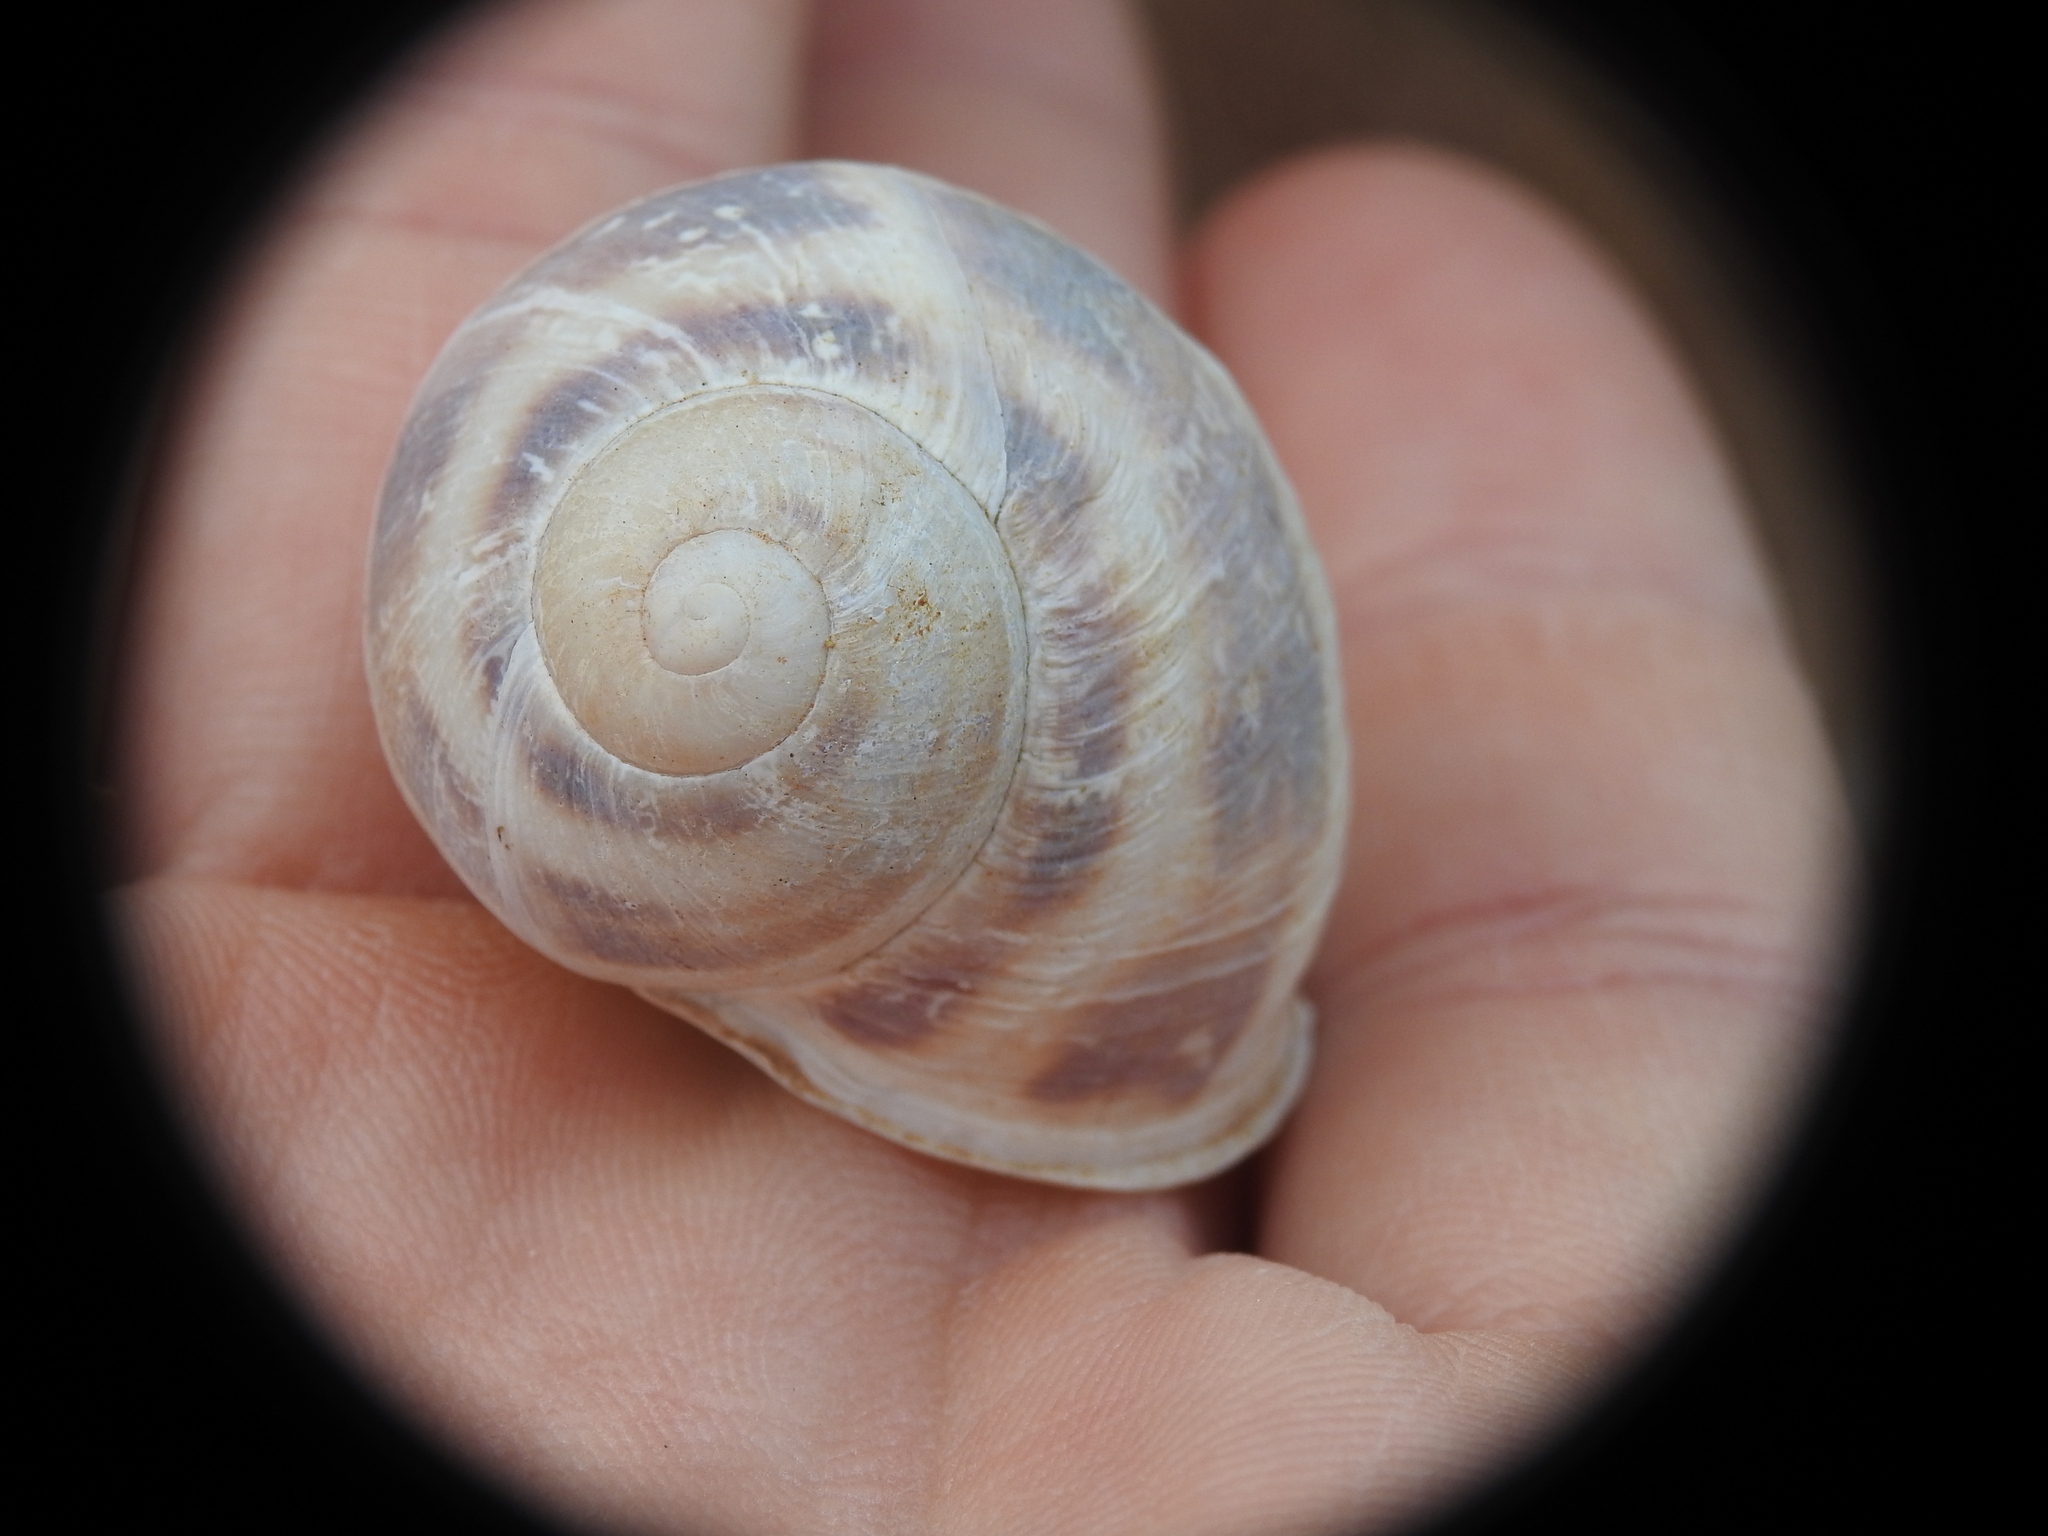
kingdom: Animalia
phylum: Mollusca
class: Gastropoda
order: Stylommatophora
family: Helicidae
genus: Cornu
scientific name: Cornu aspersum
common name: Brown garden snail
